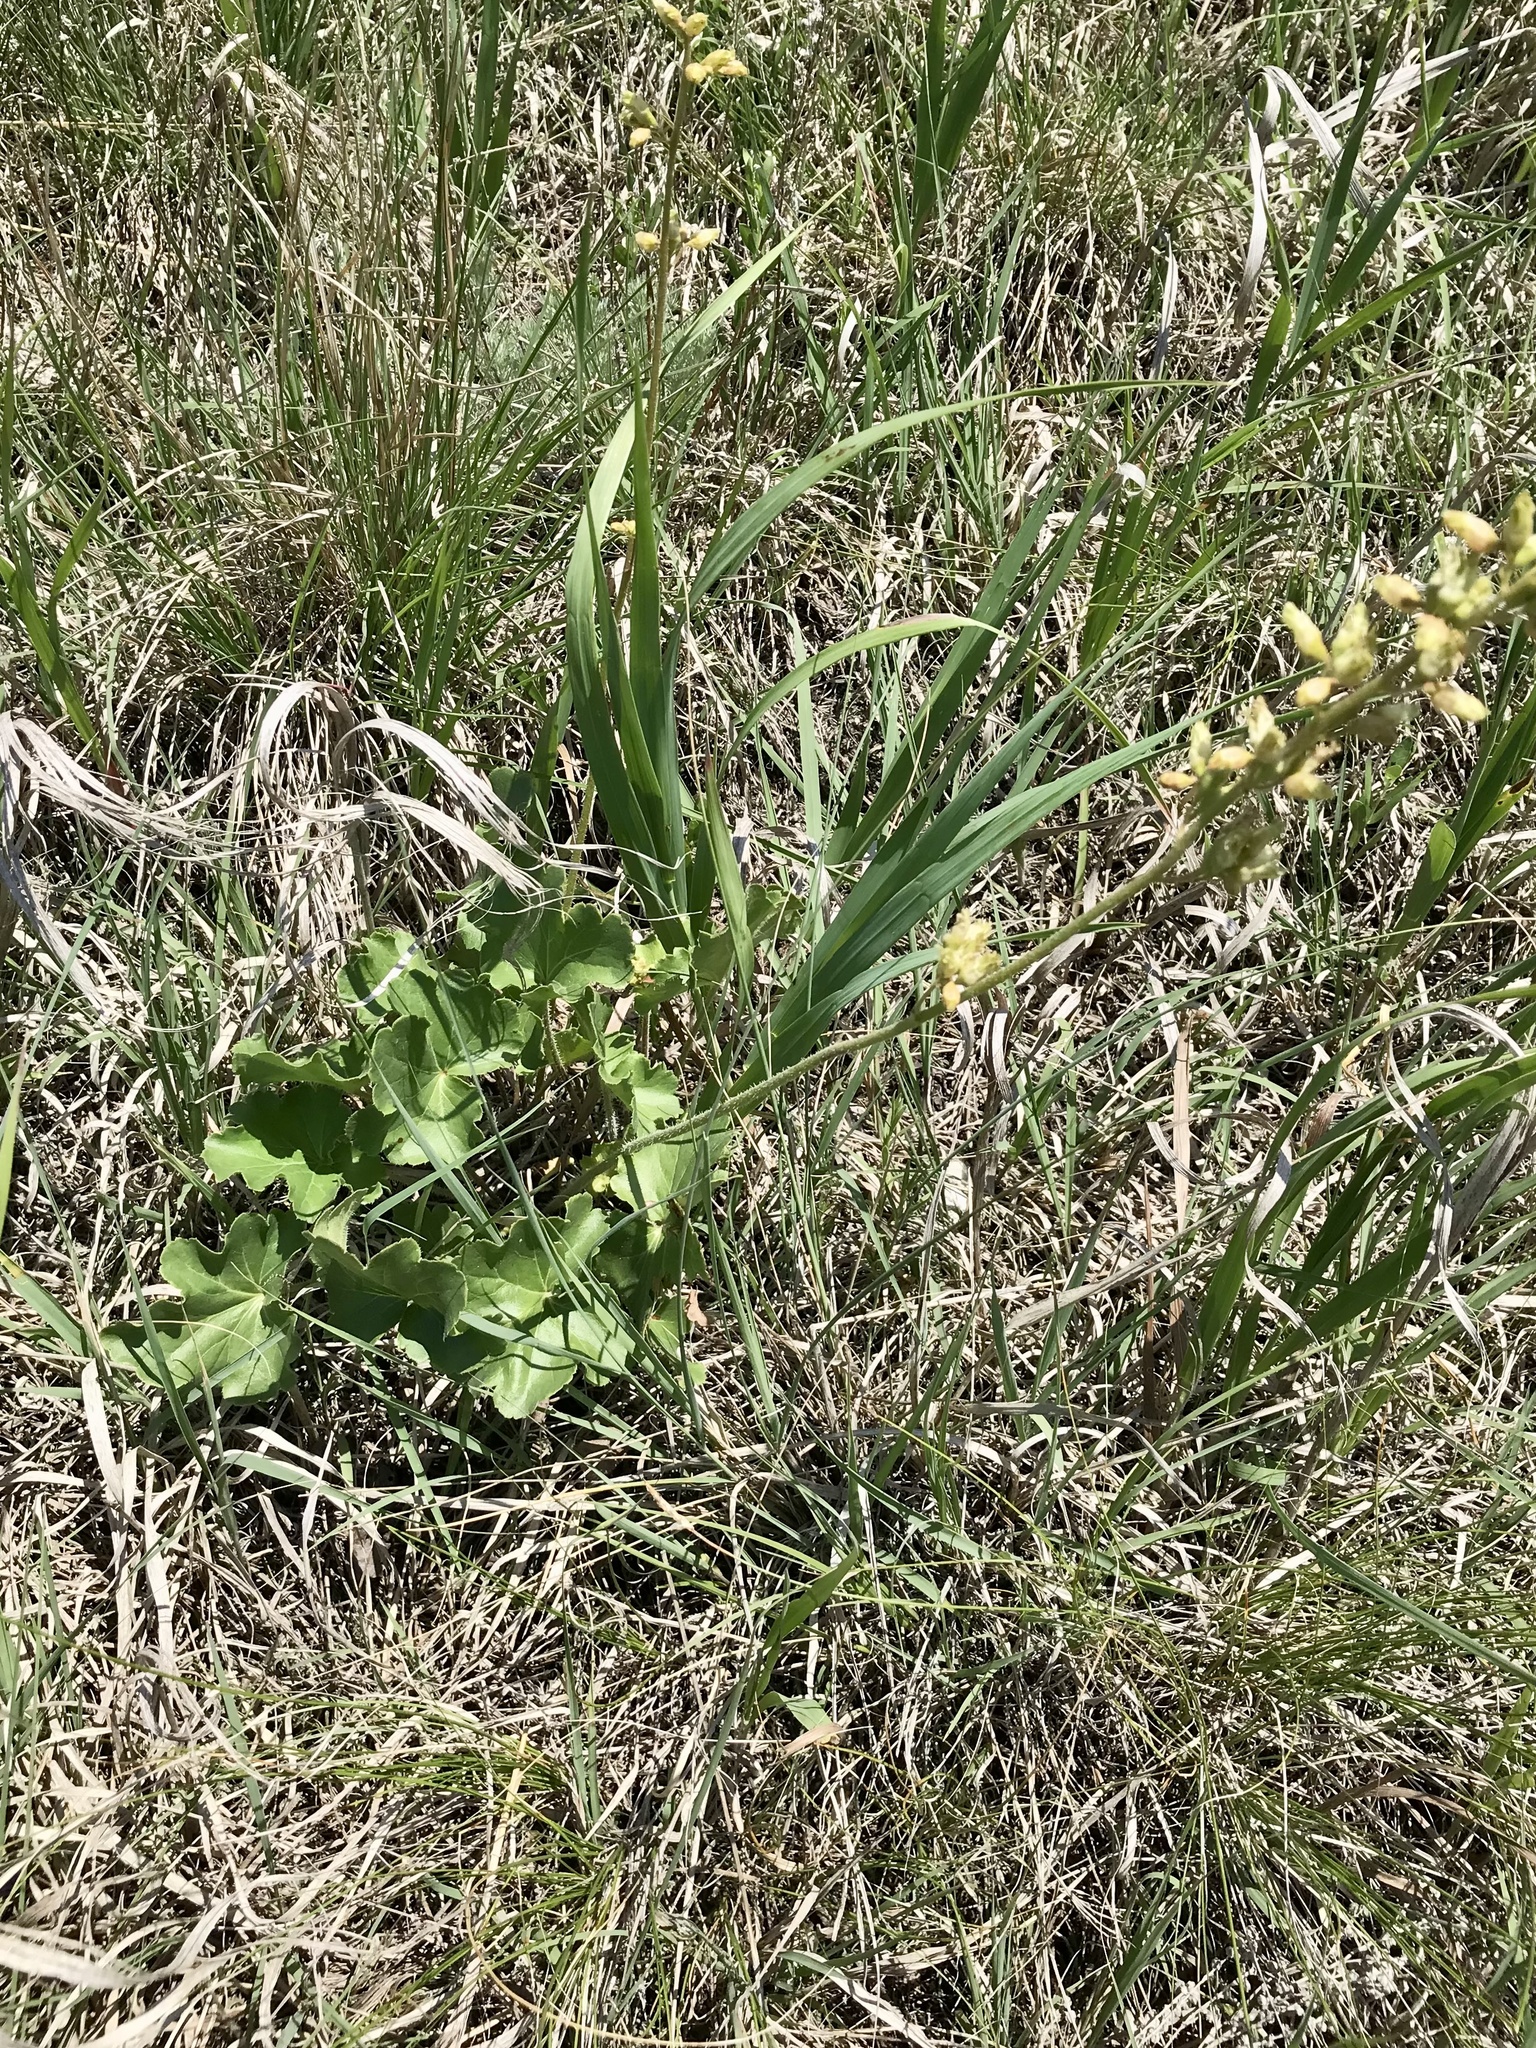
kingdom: Plantae
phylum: Tracheophyta
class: Magnoliopsida
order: Saxifragales
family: Saxifragaceae
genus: Heuchera
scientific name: Heuchera richardsonii
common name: Richardson's alumroot
